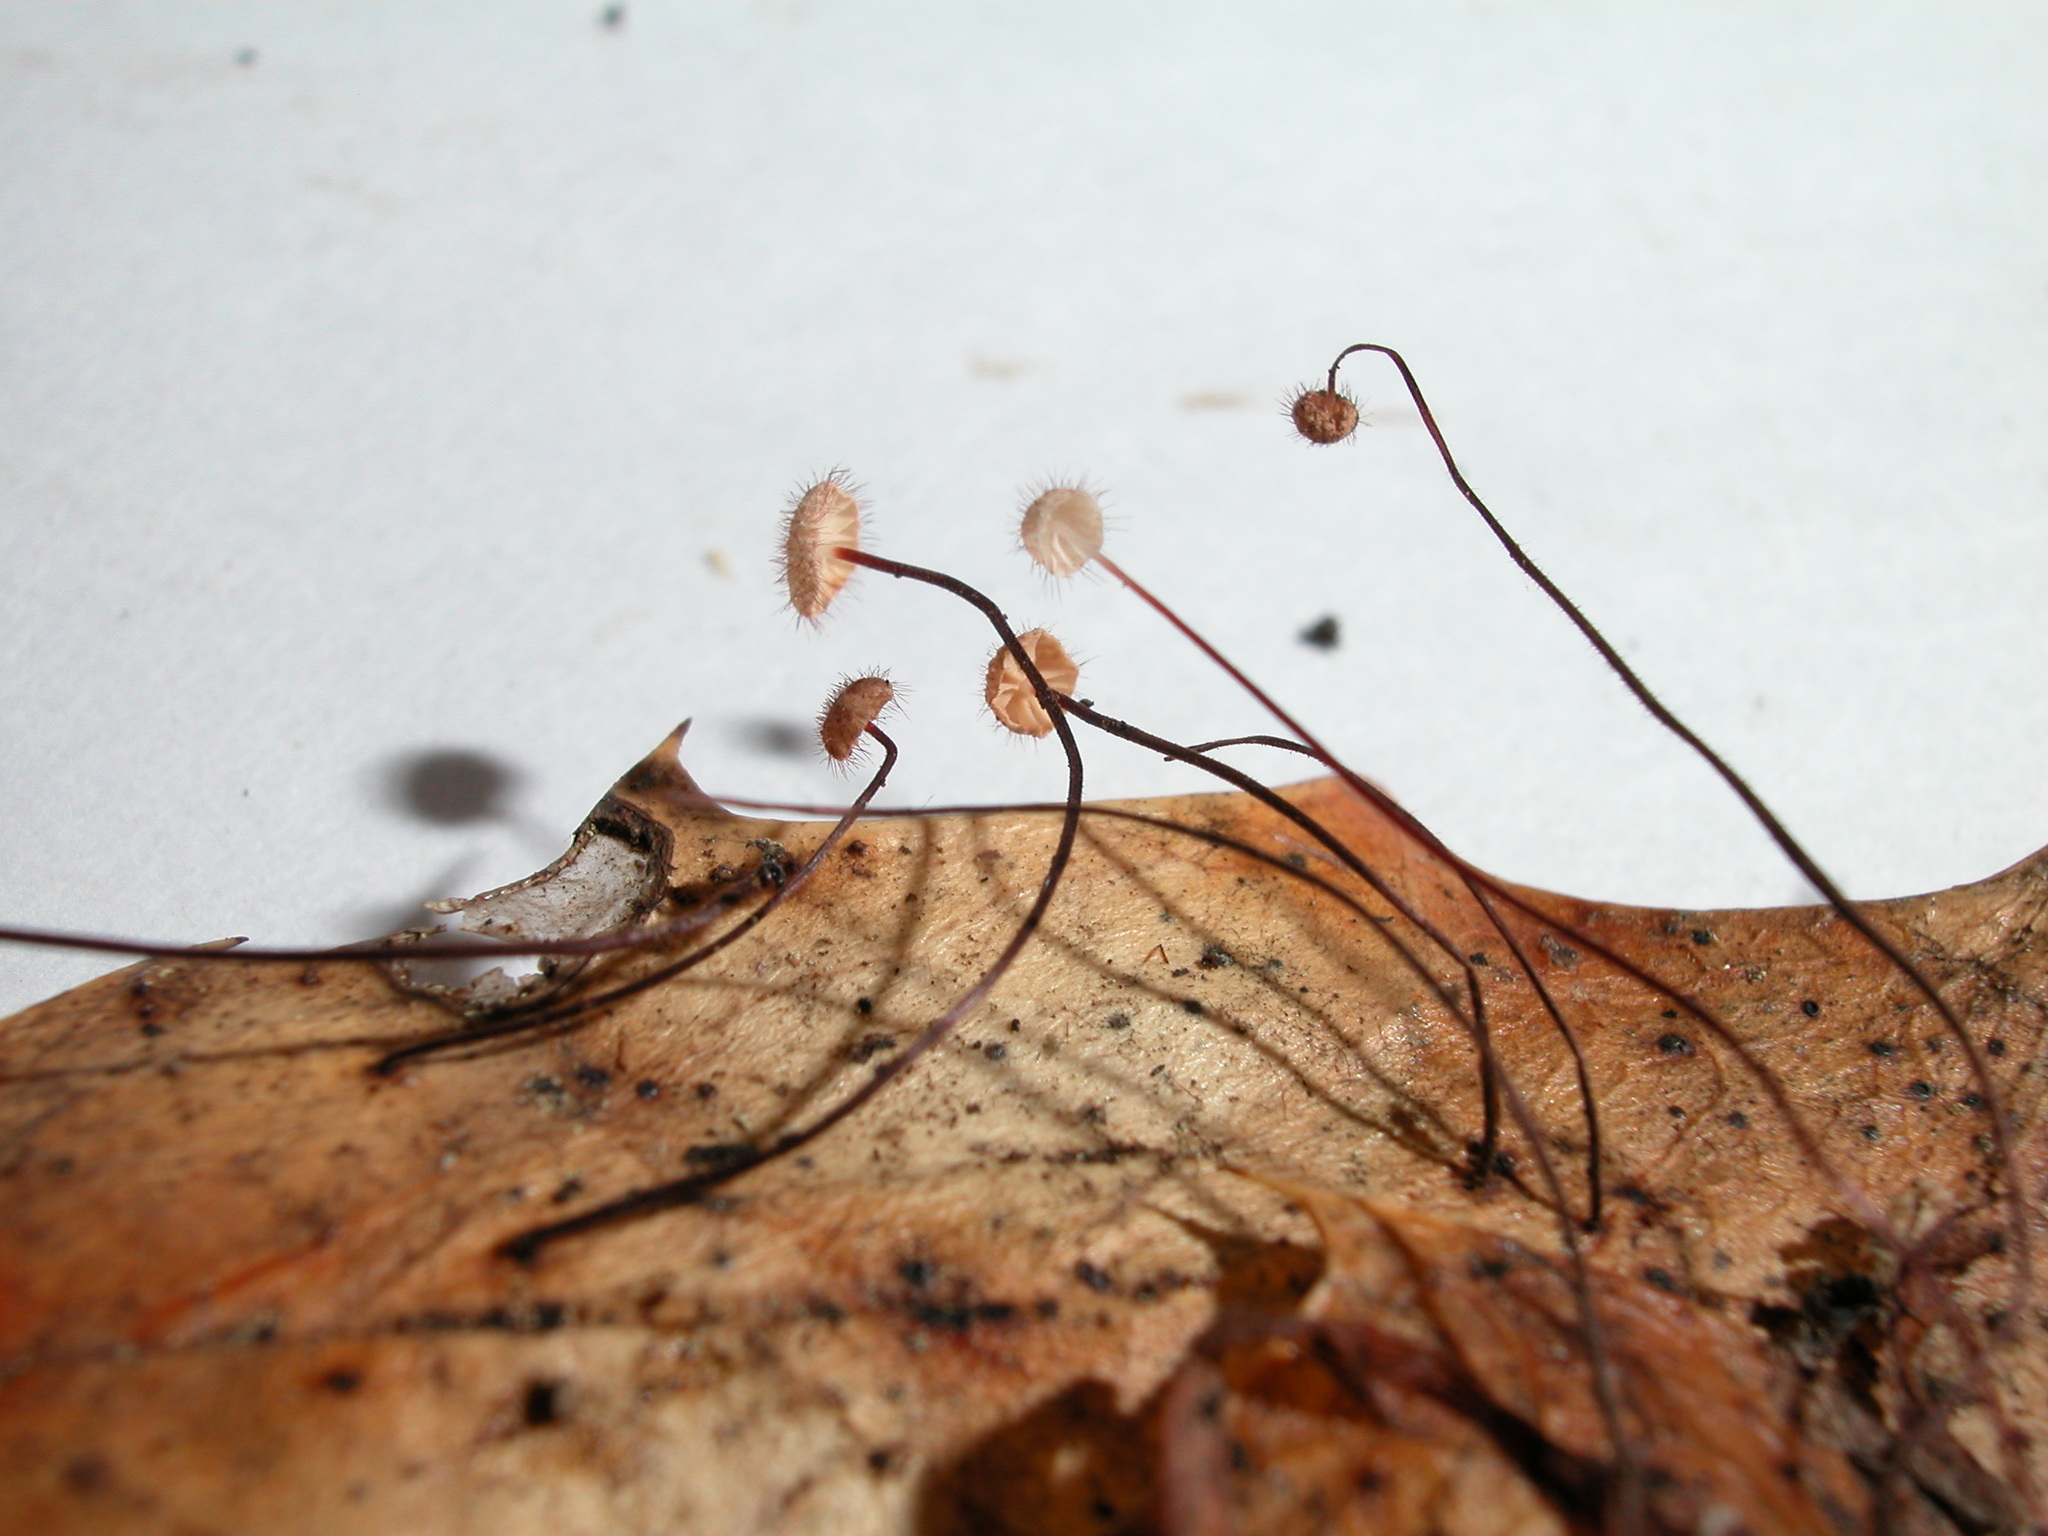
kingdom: Fungi
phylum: Basidiomycota
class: Agaricomycetes
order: Agaricales
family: Marasmiaceae
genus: Marasmius
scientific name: Marasmius hudsonii
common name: Holly parachute
